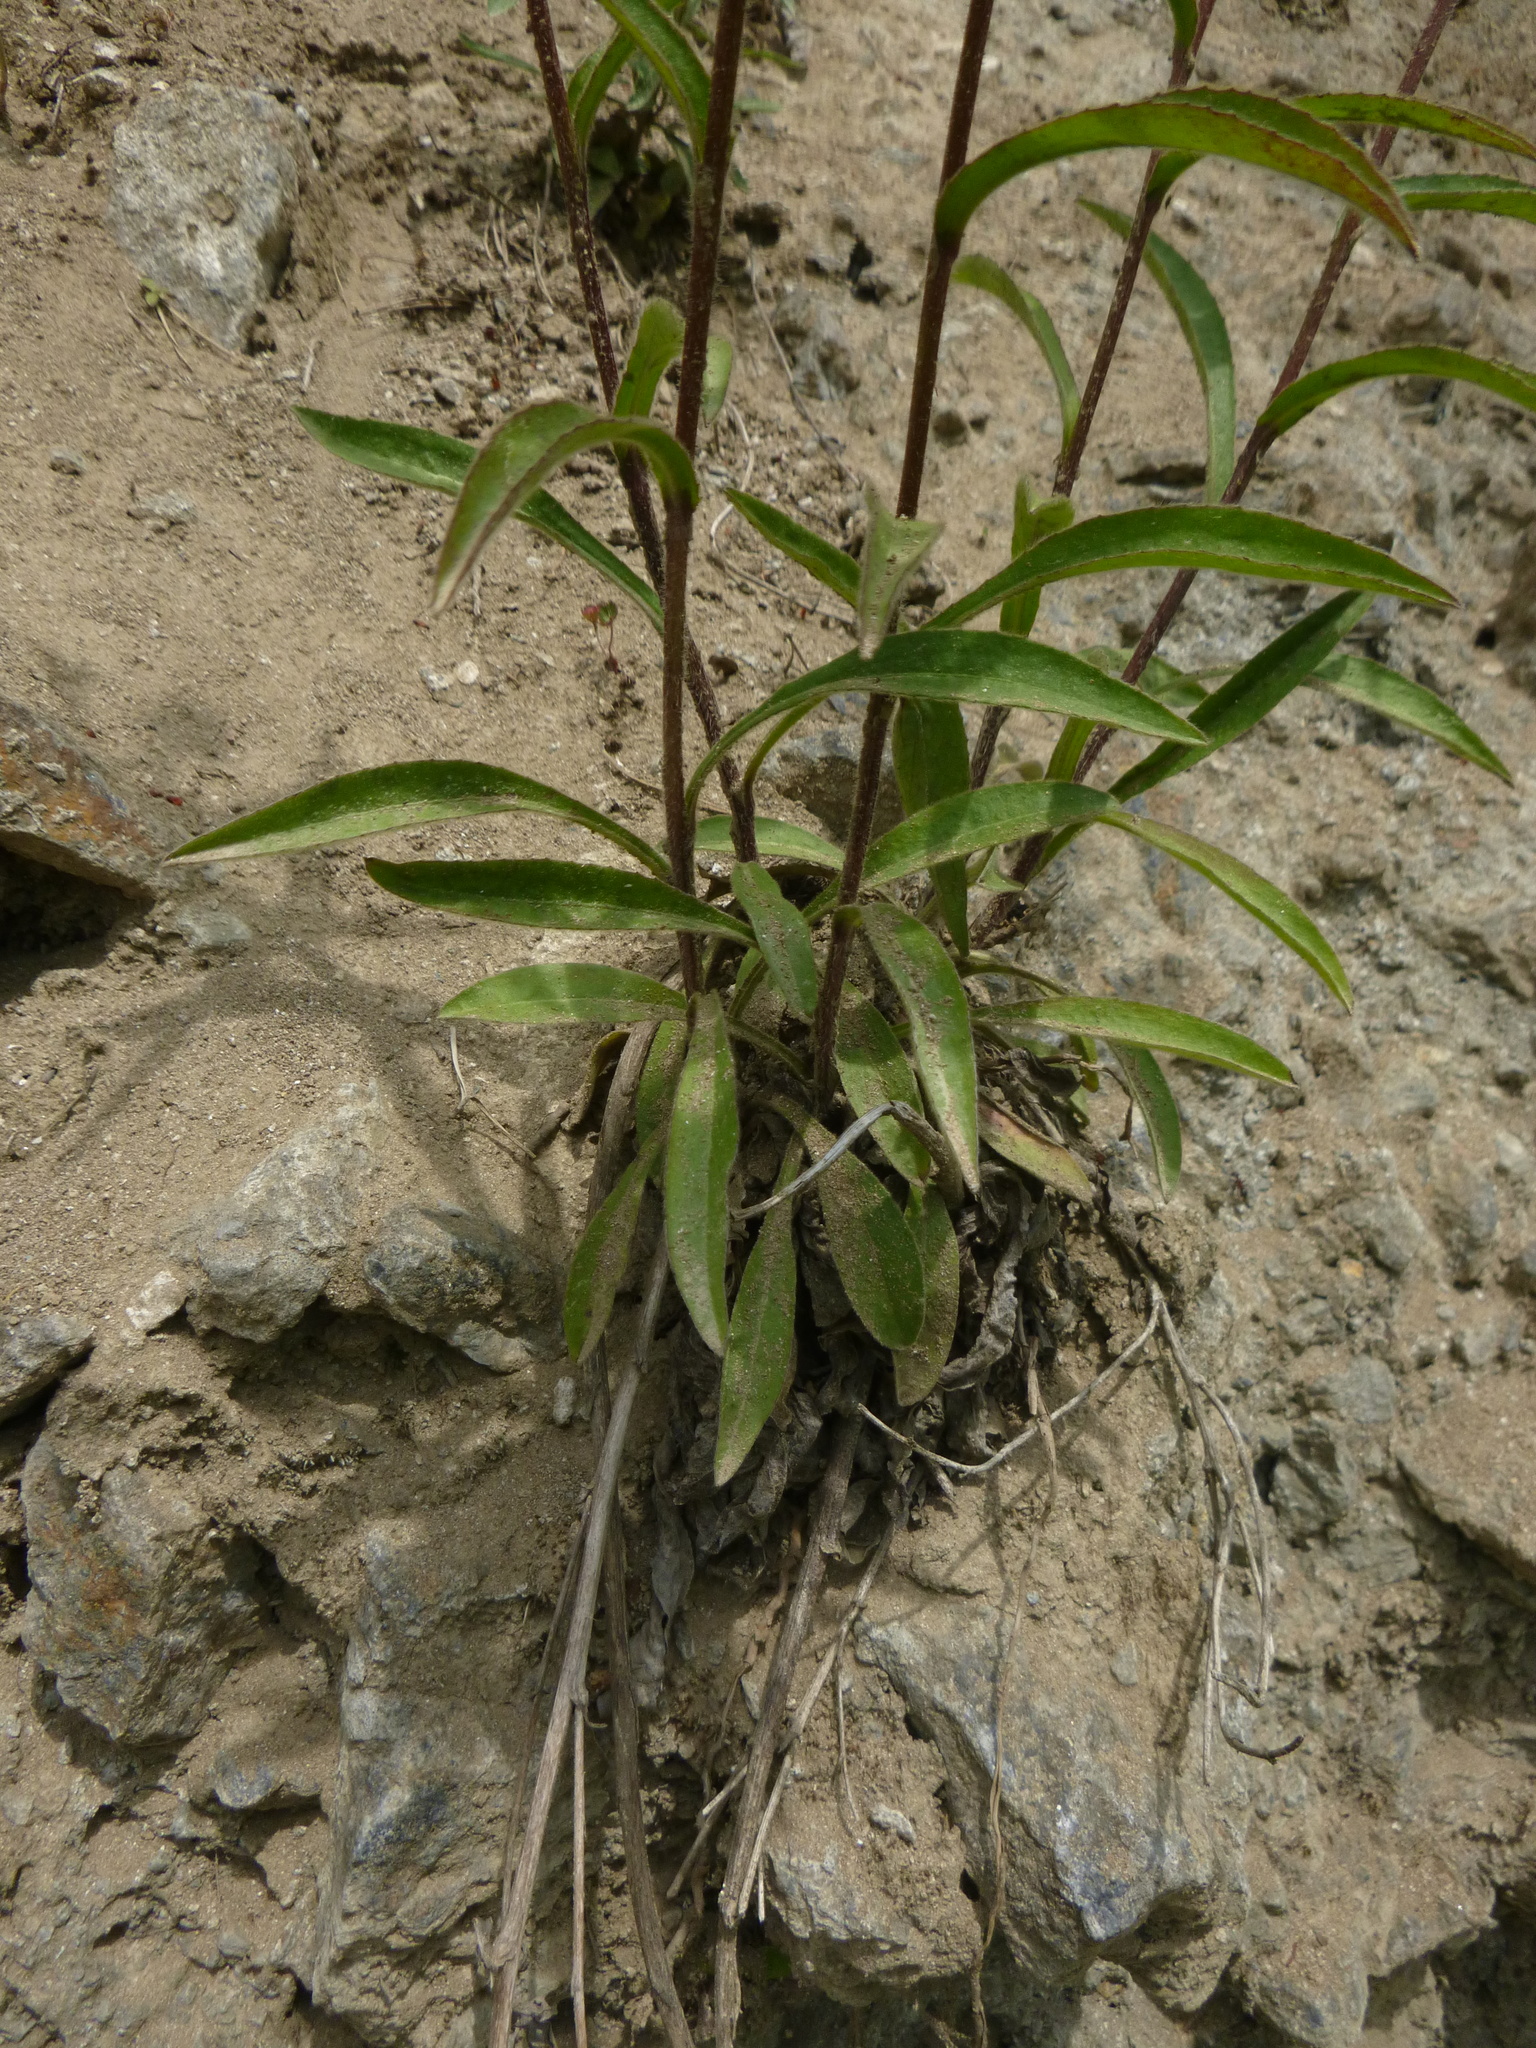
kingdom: Plantae
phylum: Tracheophyta
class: Magnoliopsida
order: Asterales
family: Asteraceae
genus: Buphthalmum
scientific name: Buphthalmum salicifolium
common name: Willow-leaved yellow-oxeye
